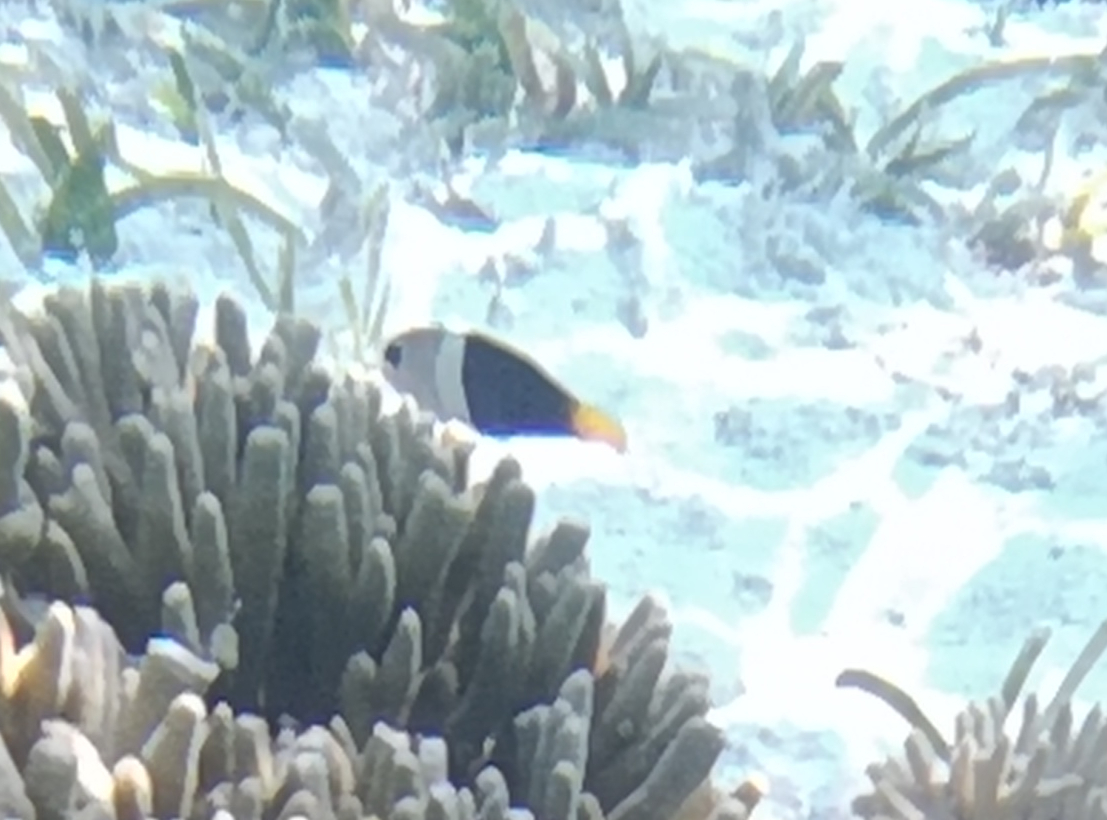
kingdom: Animalia
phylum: Chordata
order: Perciformes
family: Labridae
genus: Hemigymnus
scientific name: Hemigymnus melapterus
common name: Blackeye thicklip
